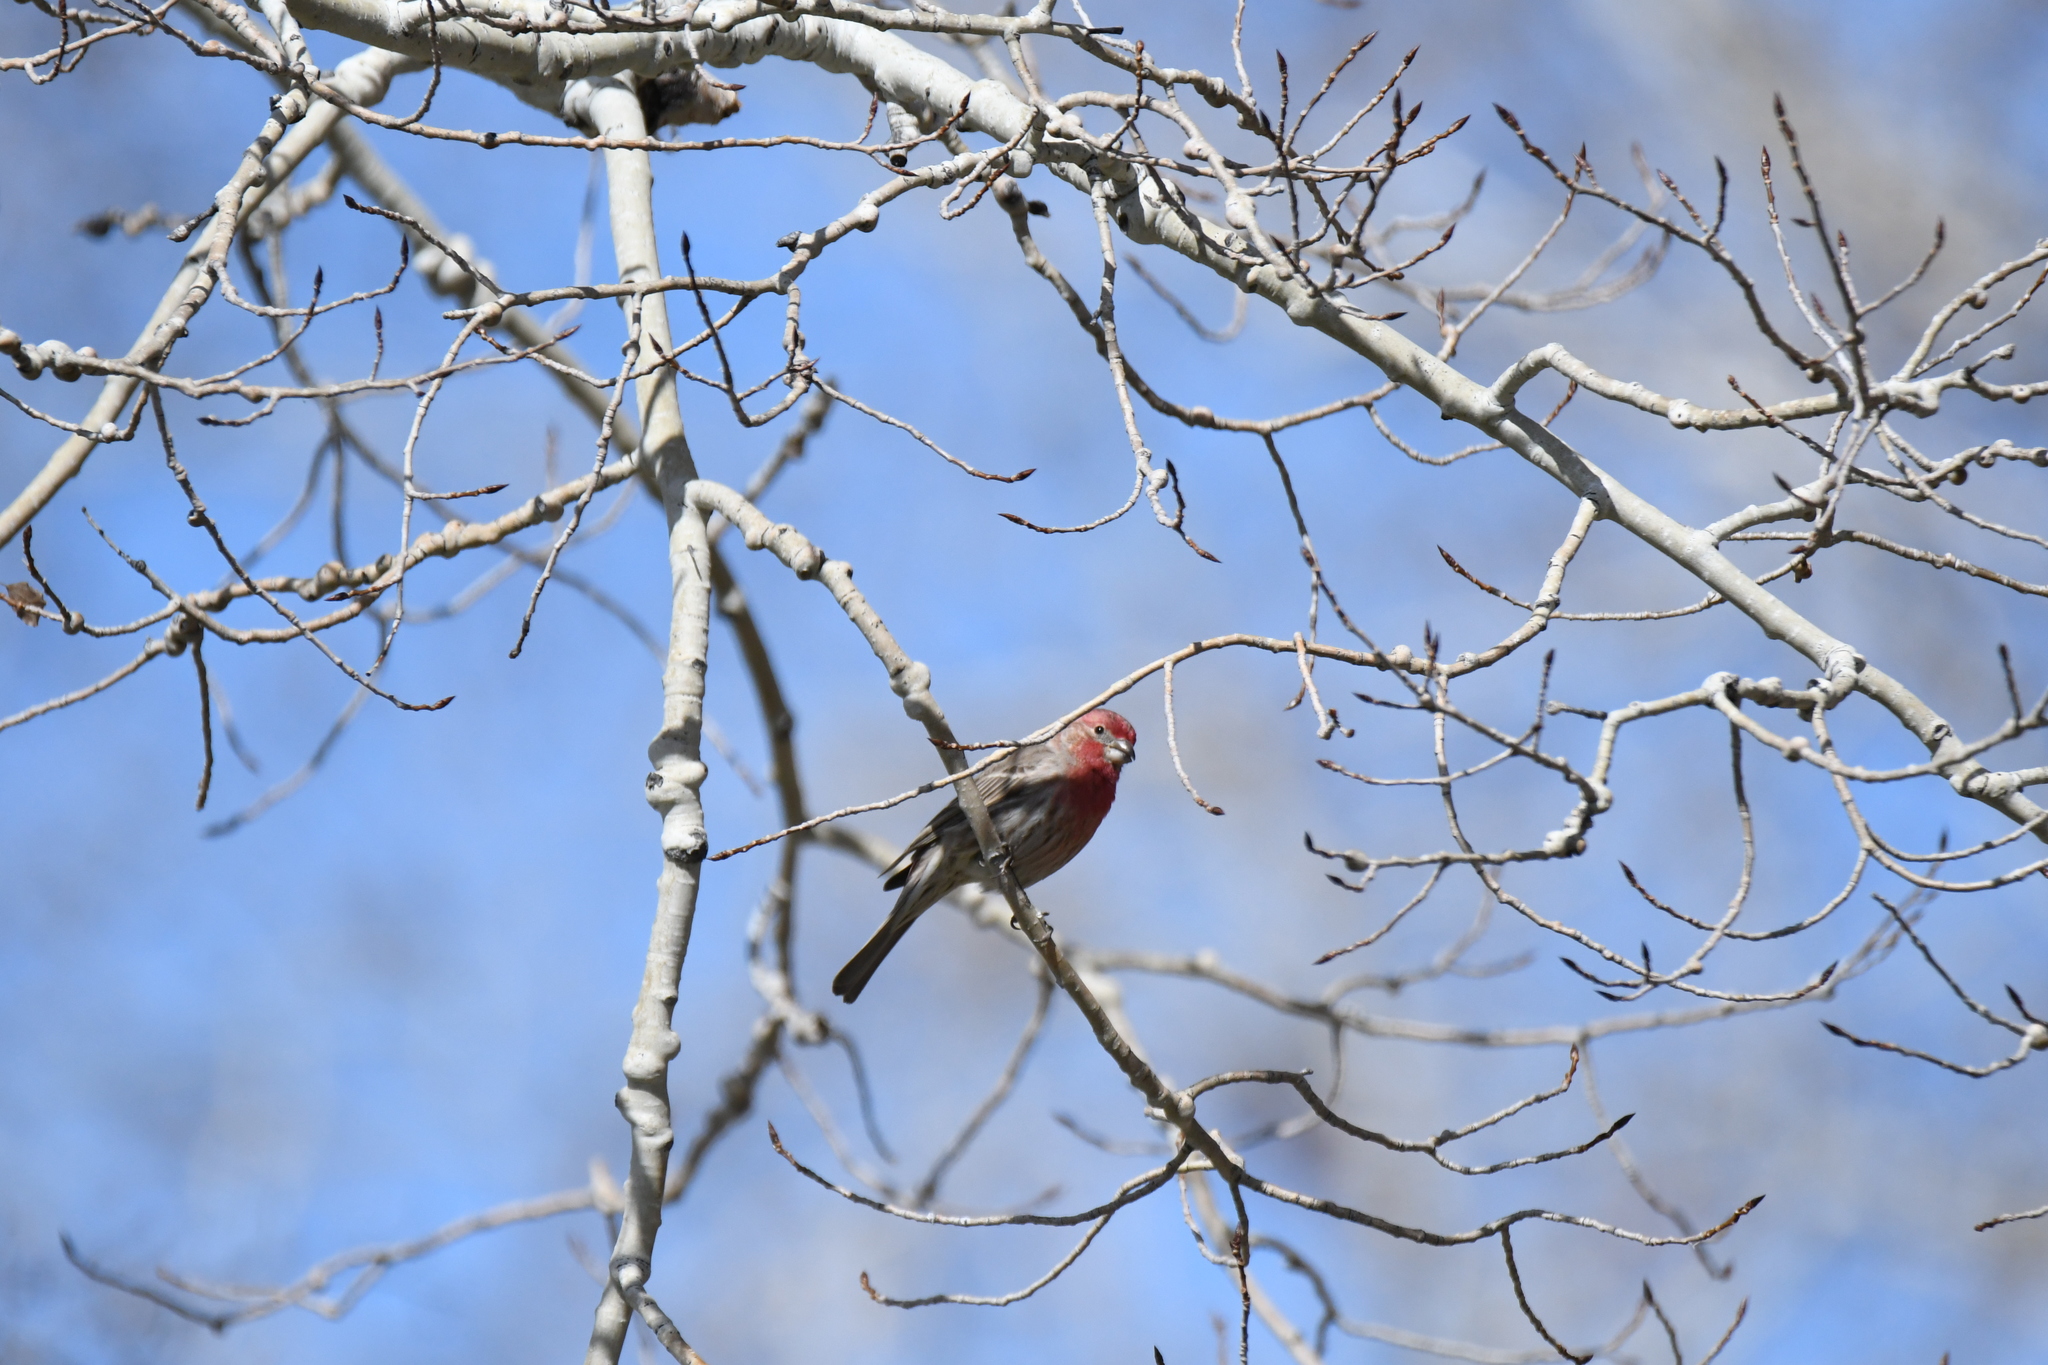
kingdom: Animalia
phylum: Chordata
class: Aves
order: Passeriformes
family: Fringillidae
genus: Haemorhous
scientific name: Haemorhous mexicanus
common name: House finch
